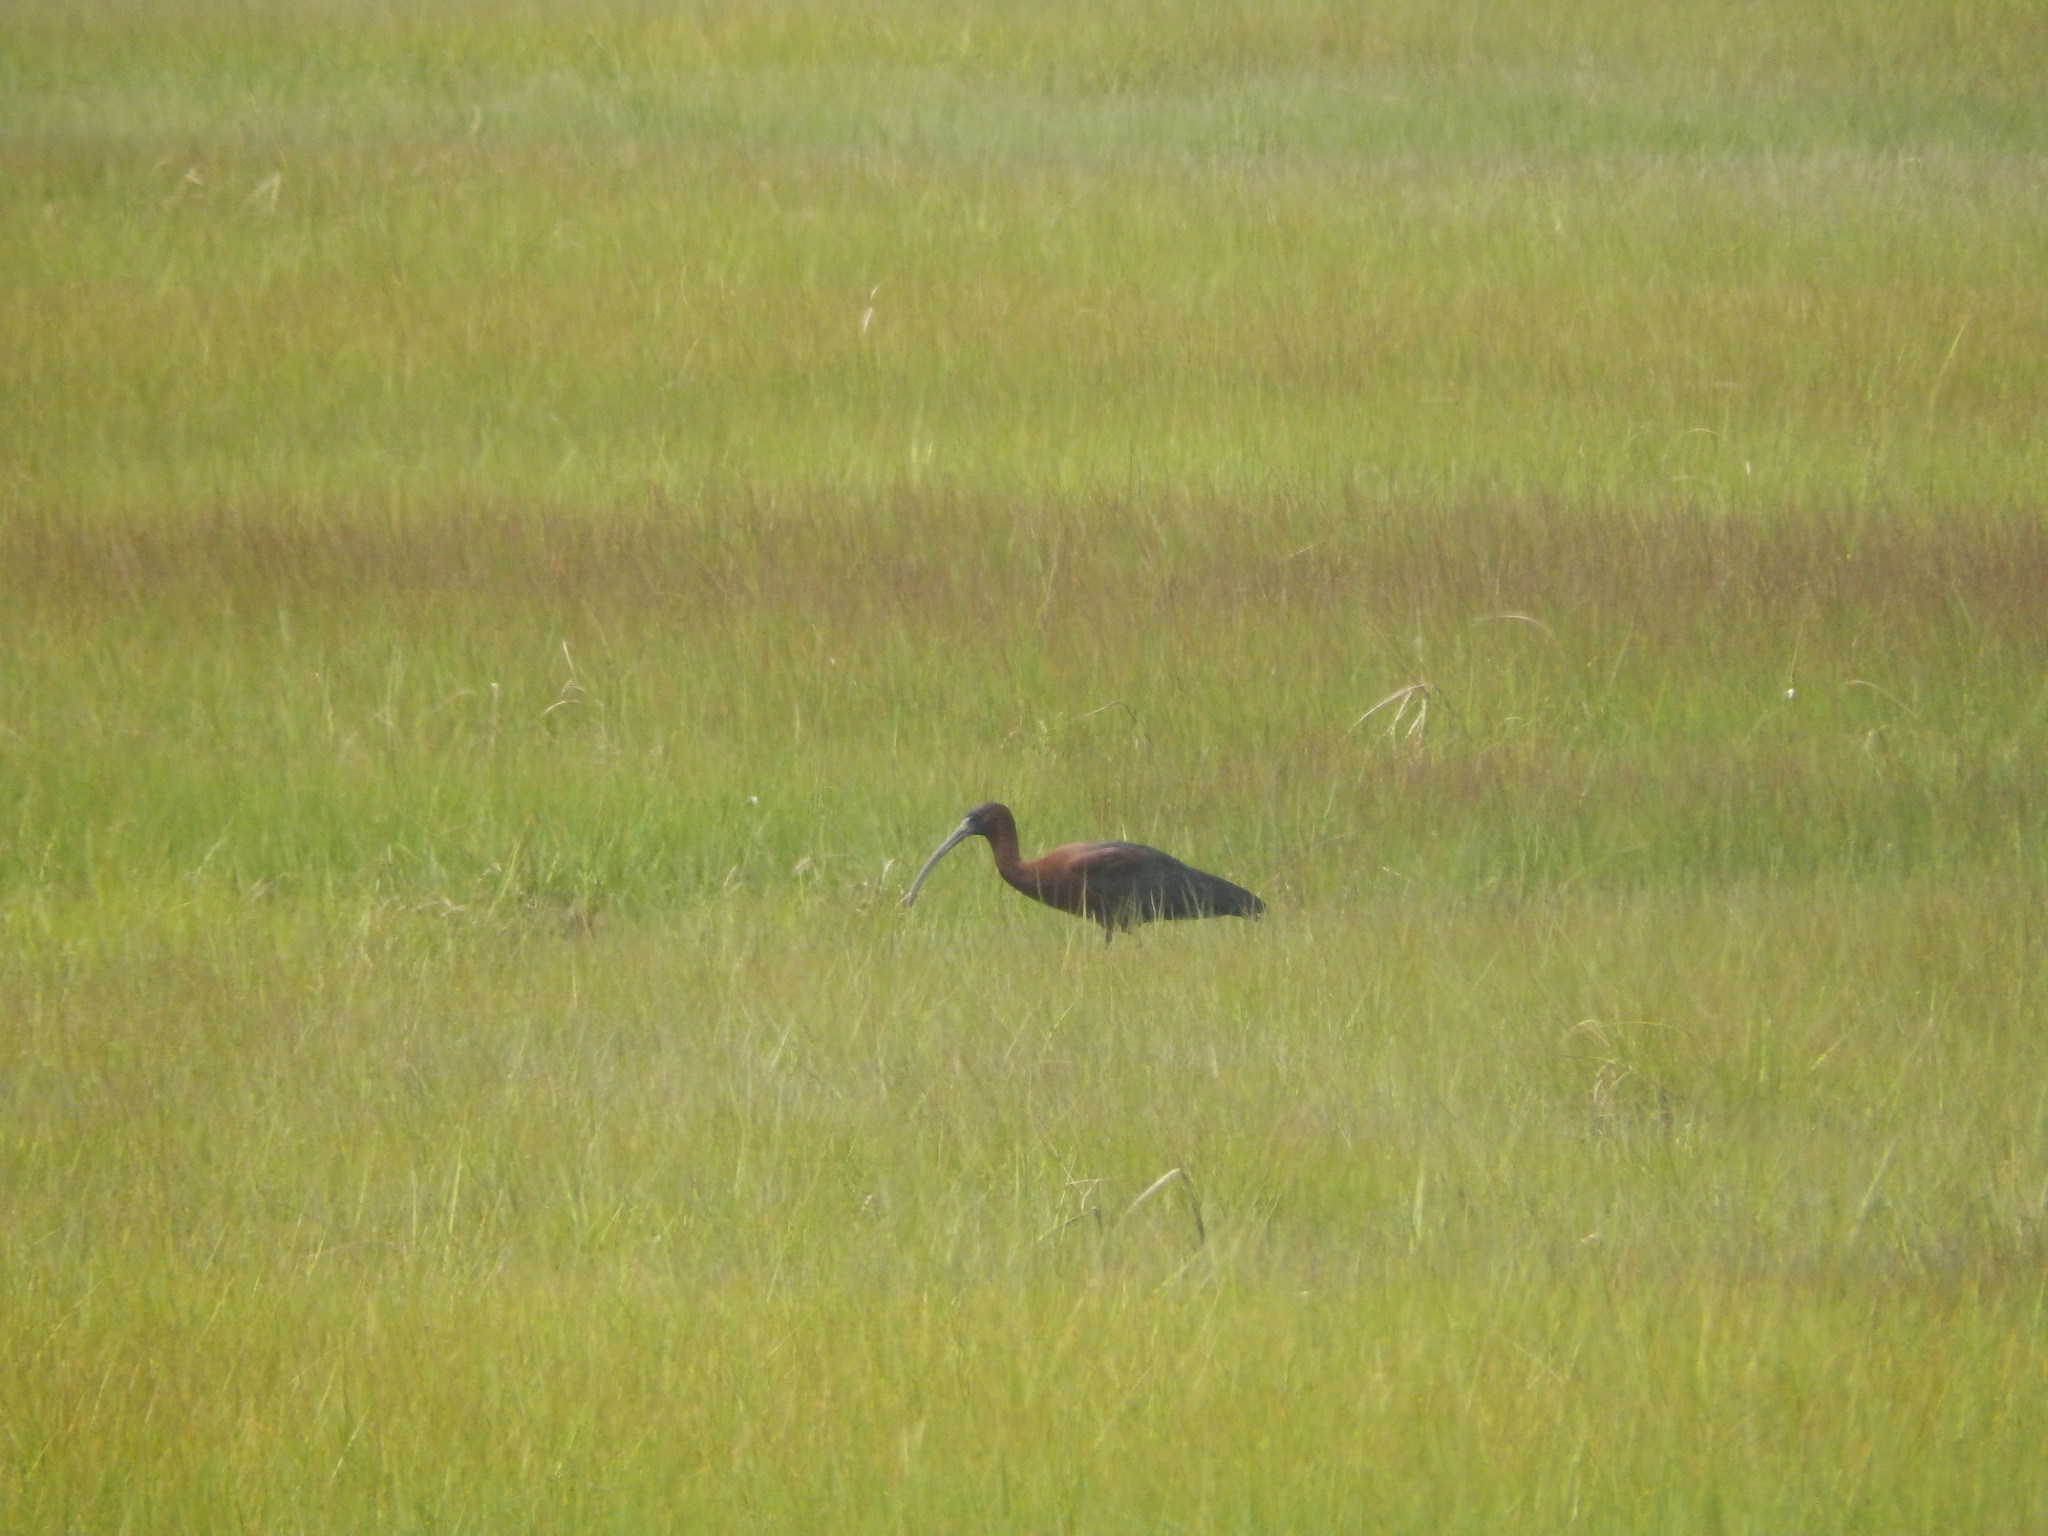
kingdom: Animalia
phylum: Chordata
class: Aves
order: Pelecaniformes
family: Threskiornithidae
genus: Plegadis
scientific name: Plegadis falcinellus
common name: Glossy ibis
